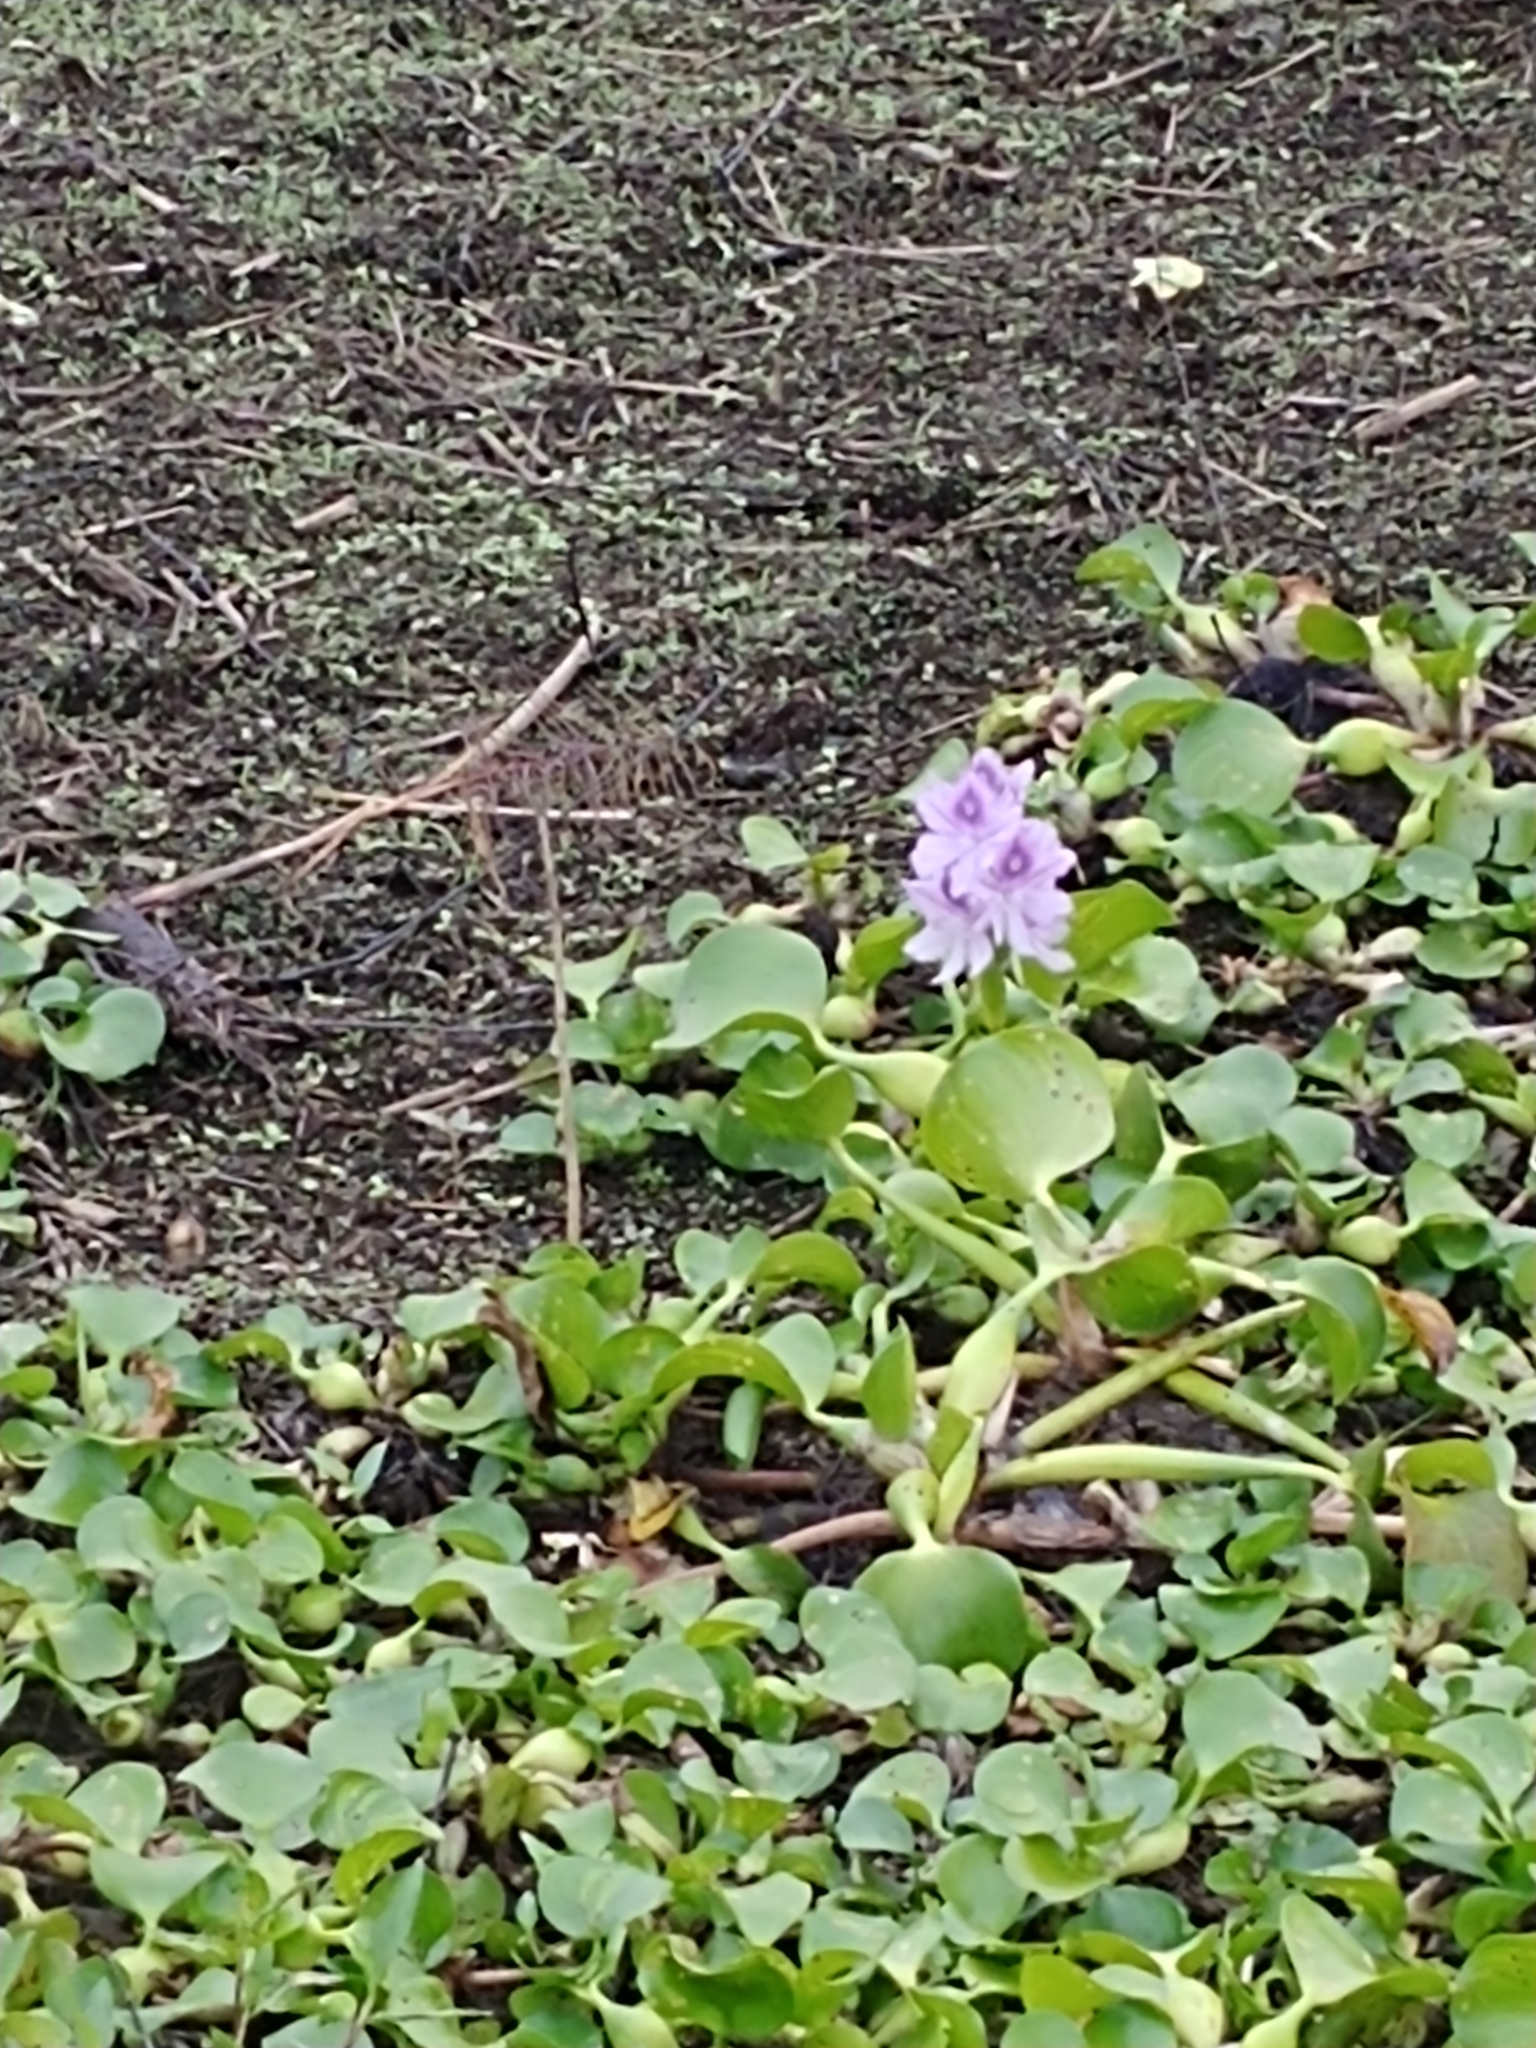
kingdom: Plantae
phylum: Tracheophyta
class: Liliopsida
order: Commelinales
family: Pontederiaceae
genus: Pontederia
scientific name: Pontederia crassipes
